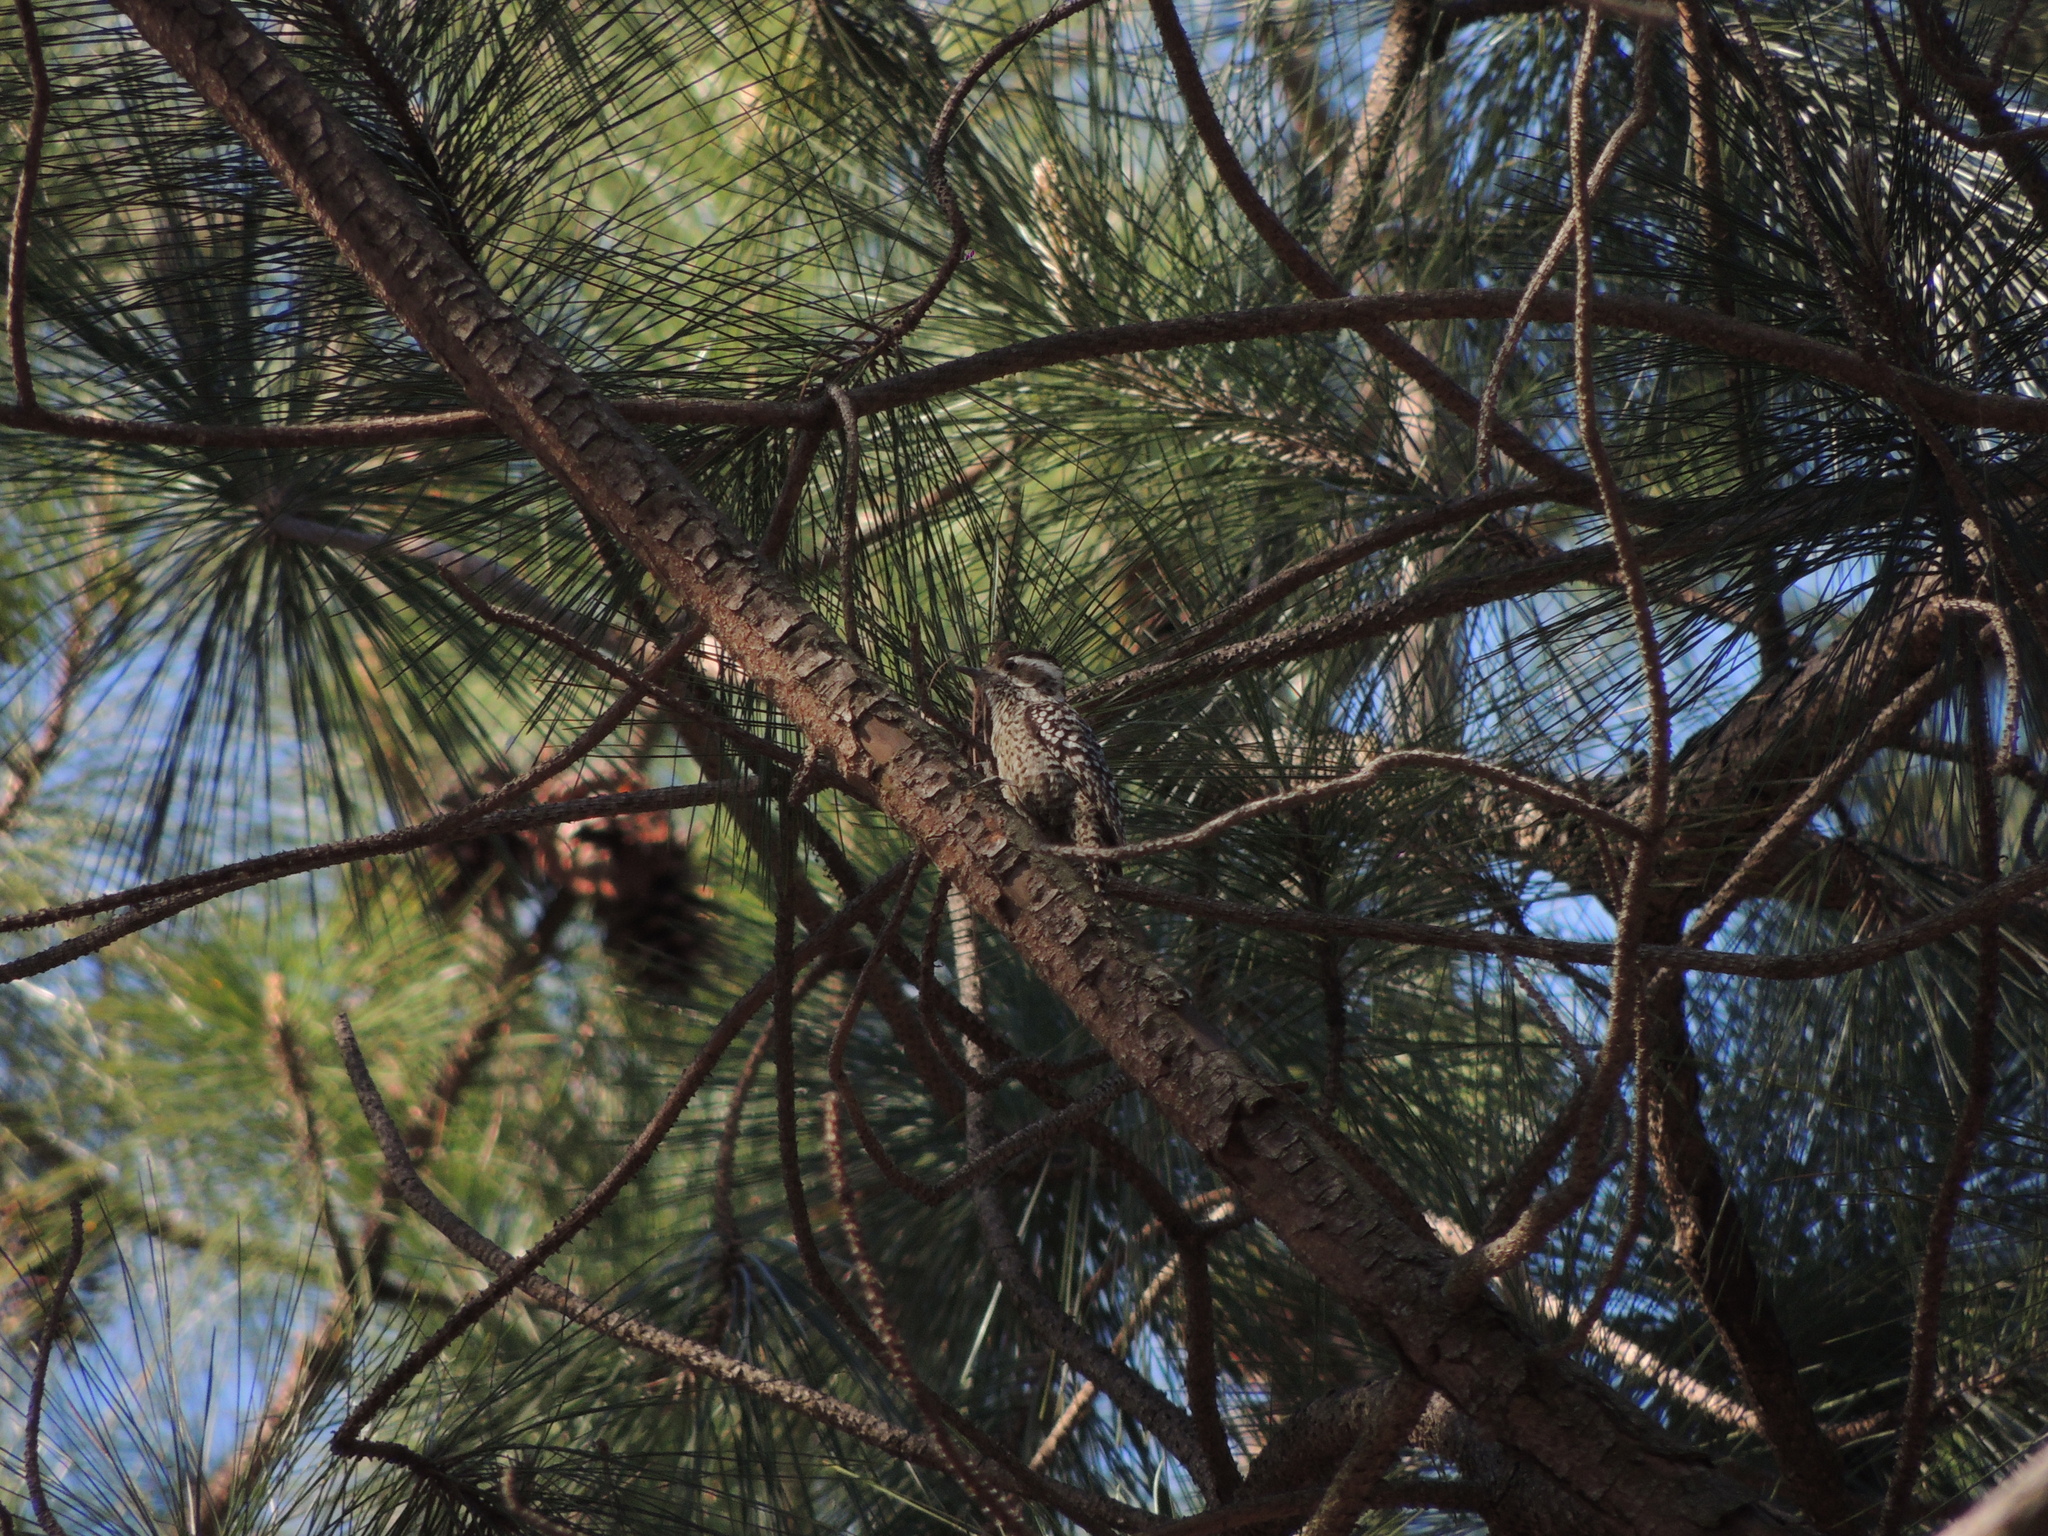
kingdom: Animalia
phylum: Chordata
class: Aves
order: Piciformes
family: Picidae
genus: Veniliornis
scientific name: Veniliornis mixtus
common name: Checkered woodpecker
